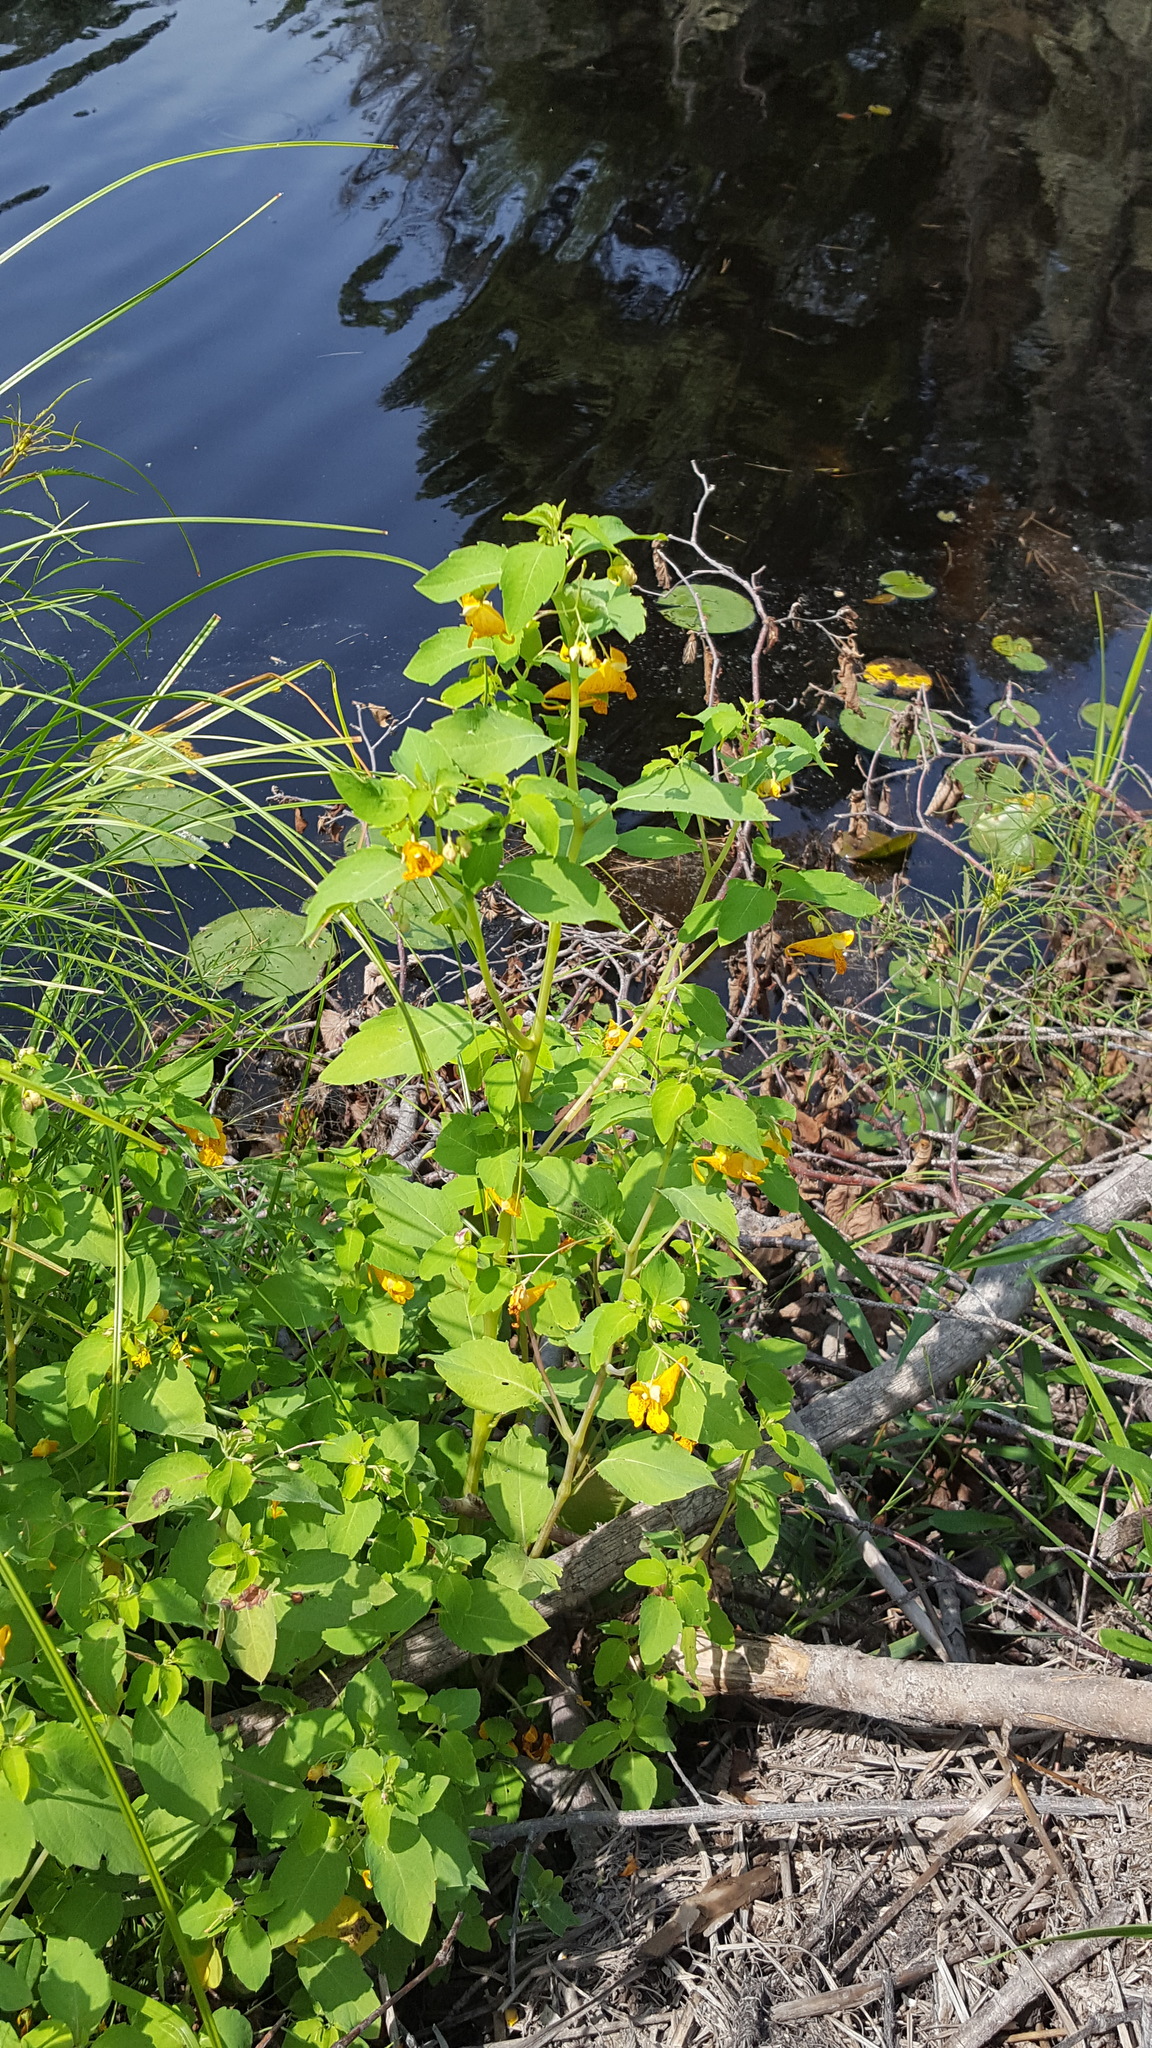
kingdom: Plantae
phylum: Tracheophyta
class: Magnoliopsida
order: Ericales
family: Balsaminaceae
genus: Impatiens
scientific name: Impatiens capensis
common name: Orange balsam
